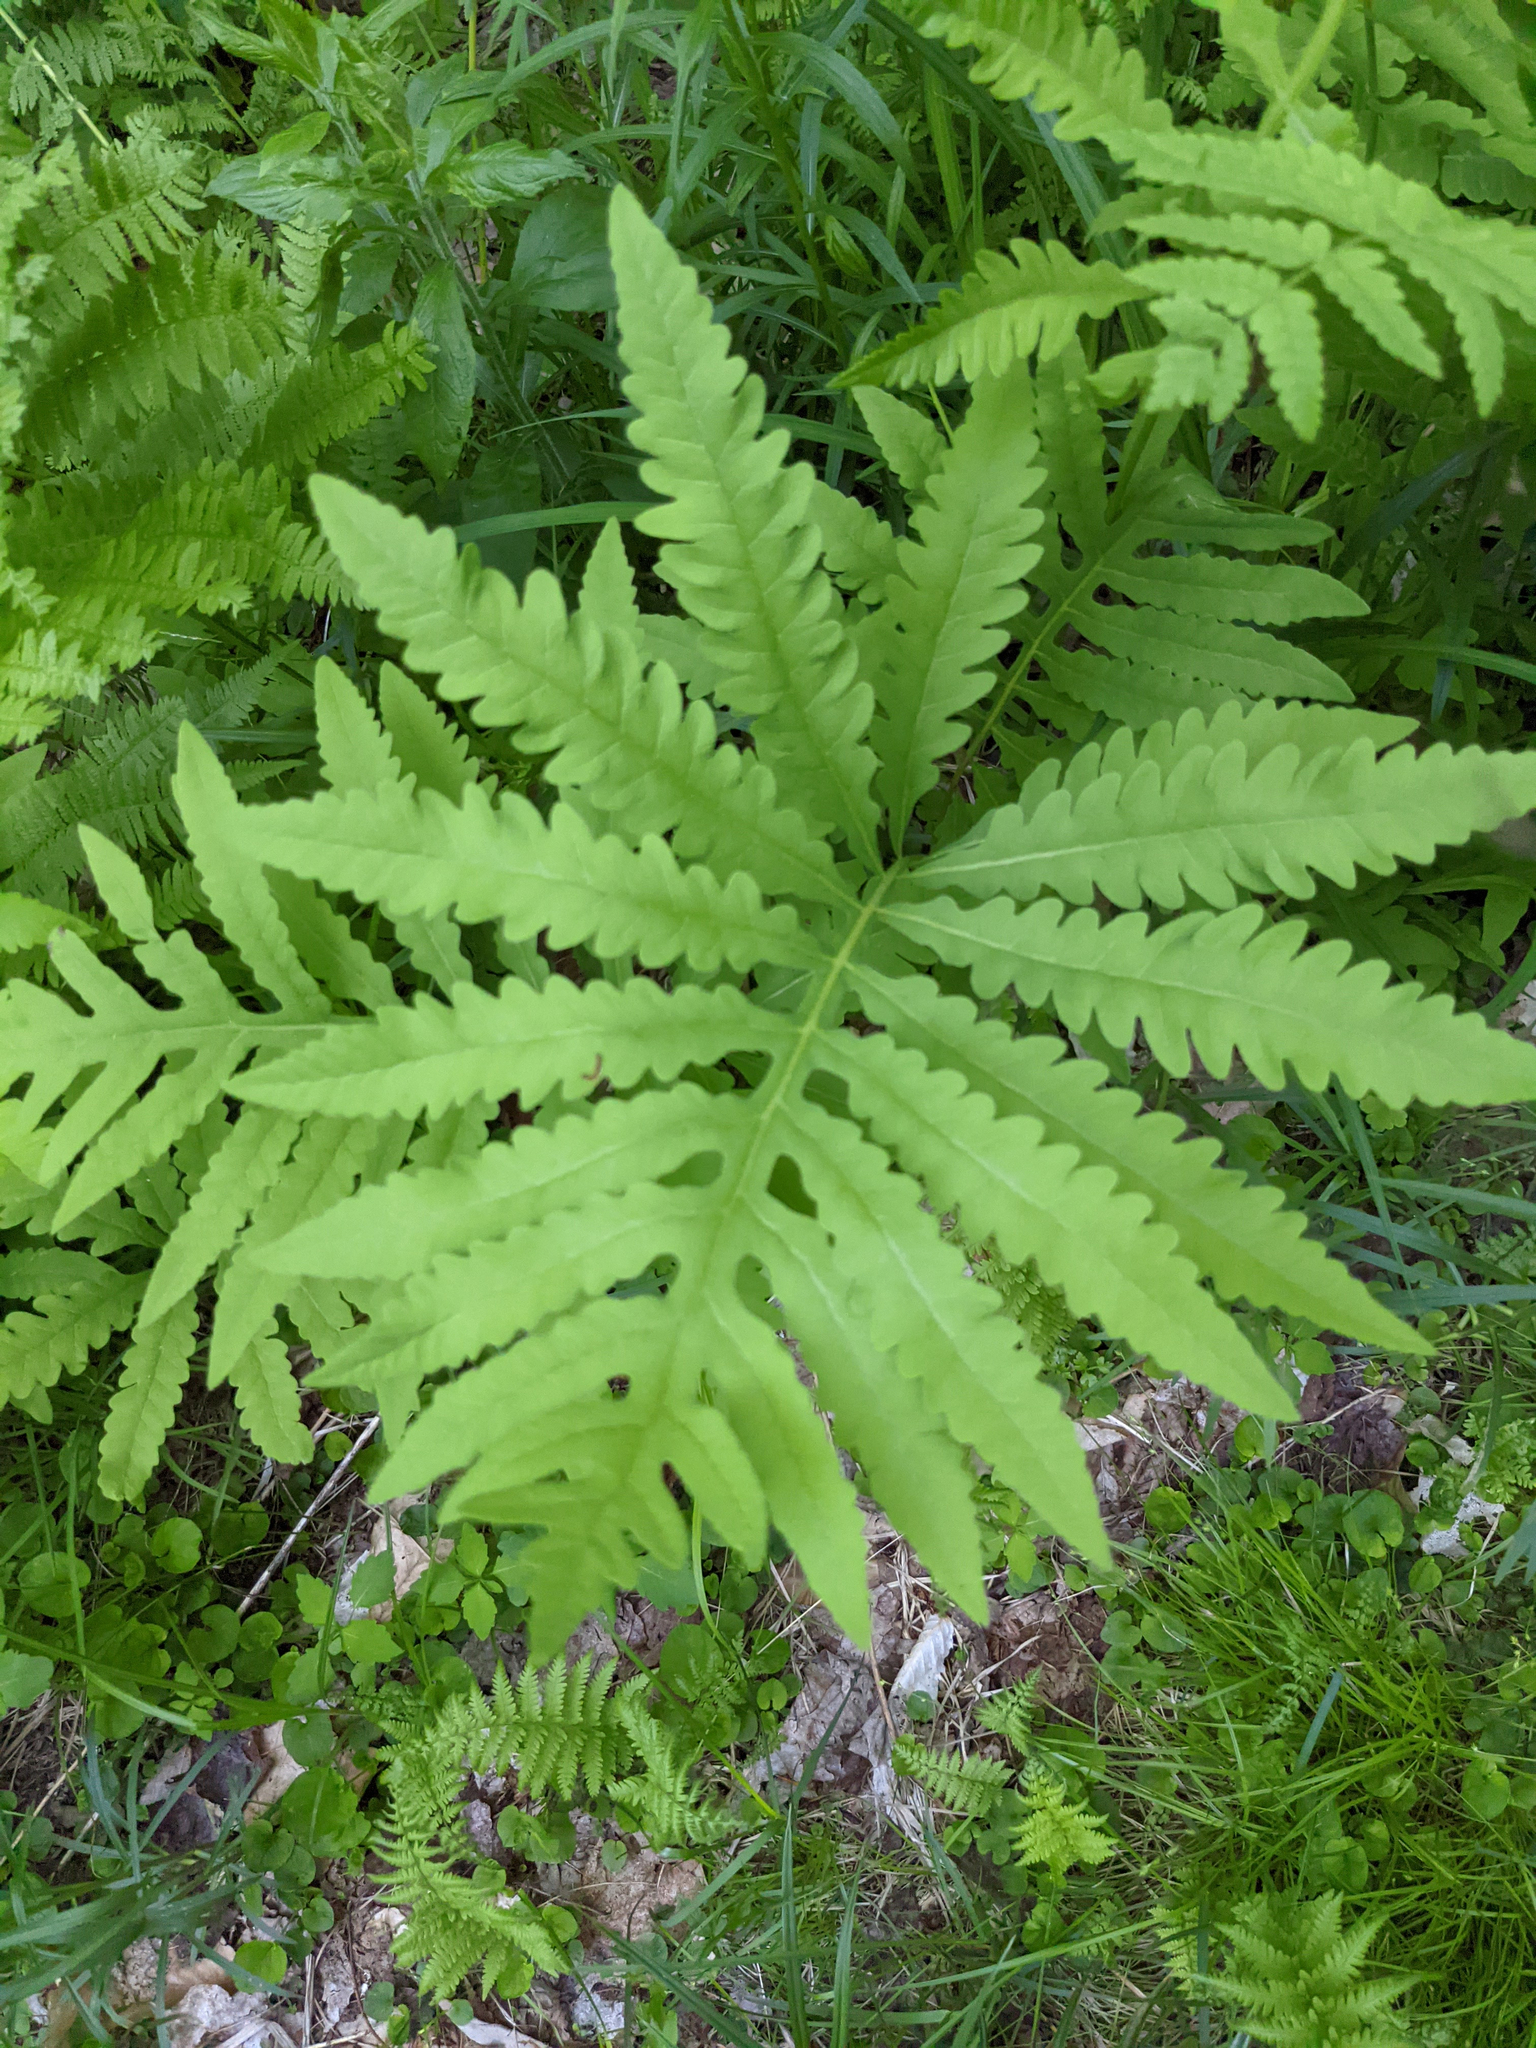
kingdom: Plantae
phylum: Tracheophyta
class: Polypodiopsida
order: Polypodiales
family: Onocleaceae
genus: Onoclea
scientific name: Onoclea sensibilis
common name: Sensitive fern
